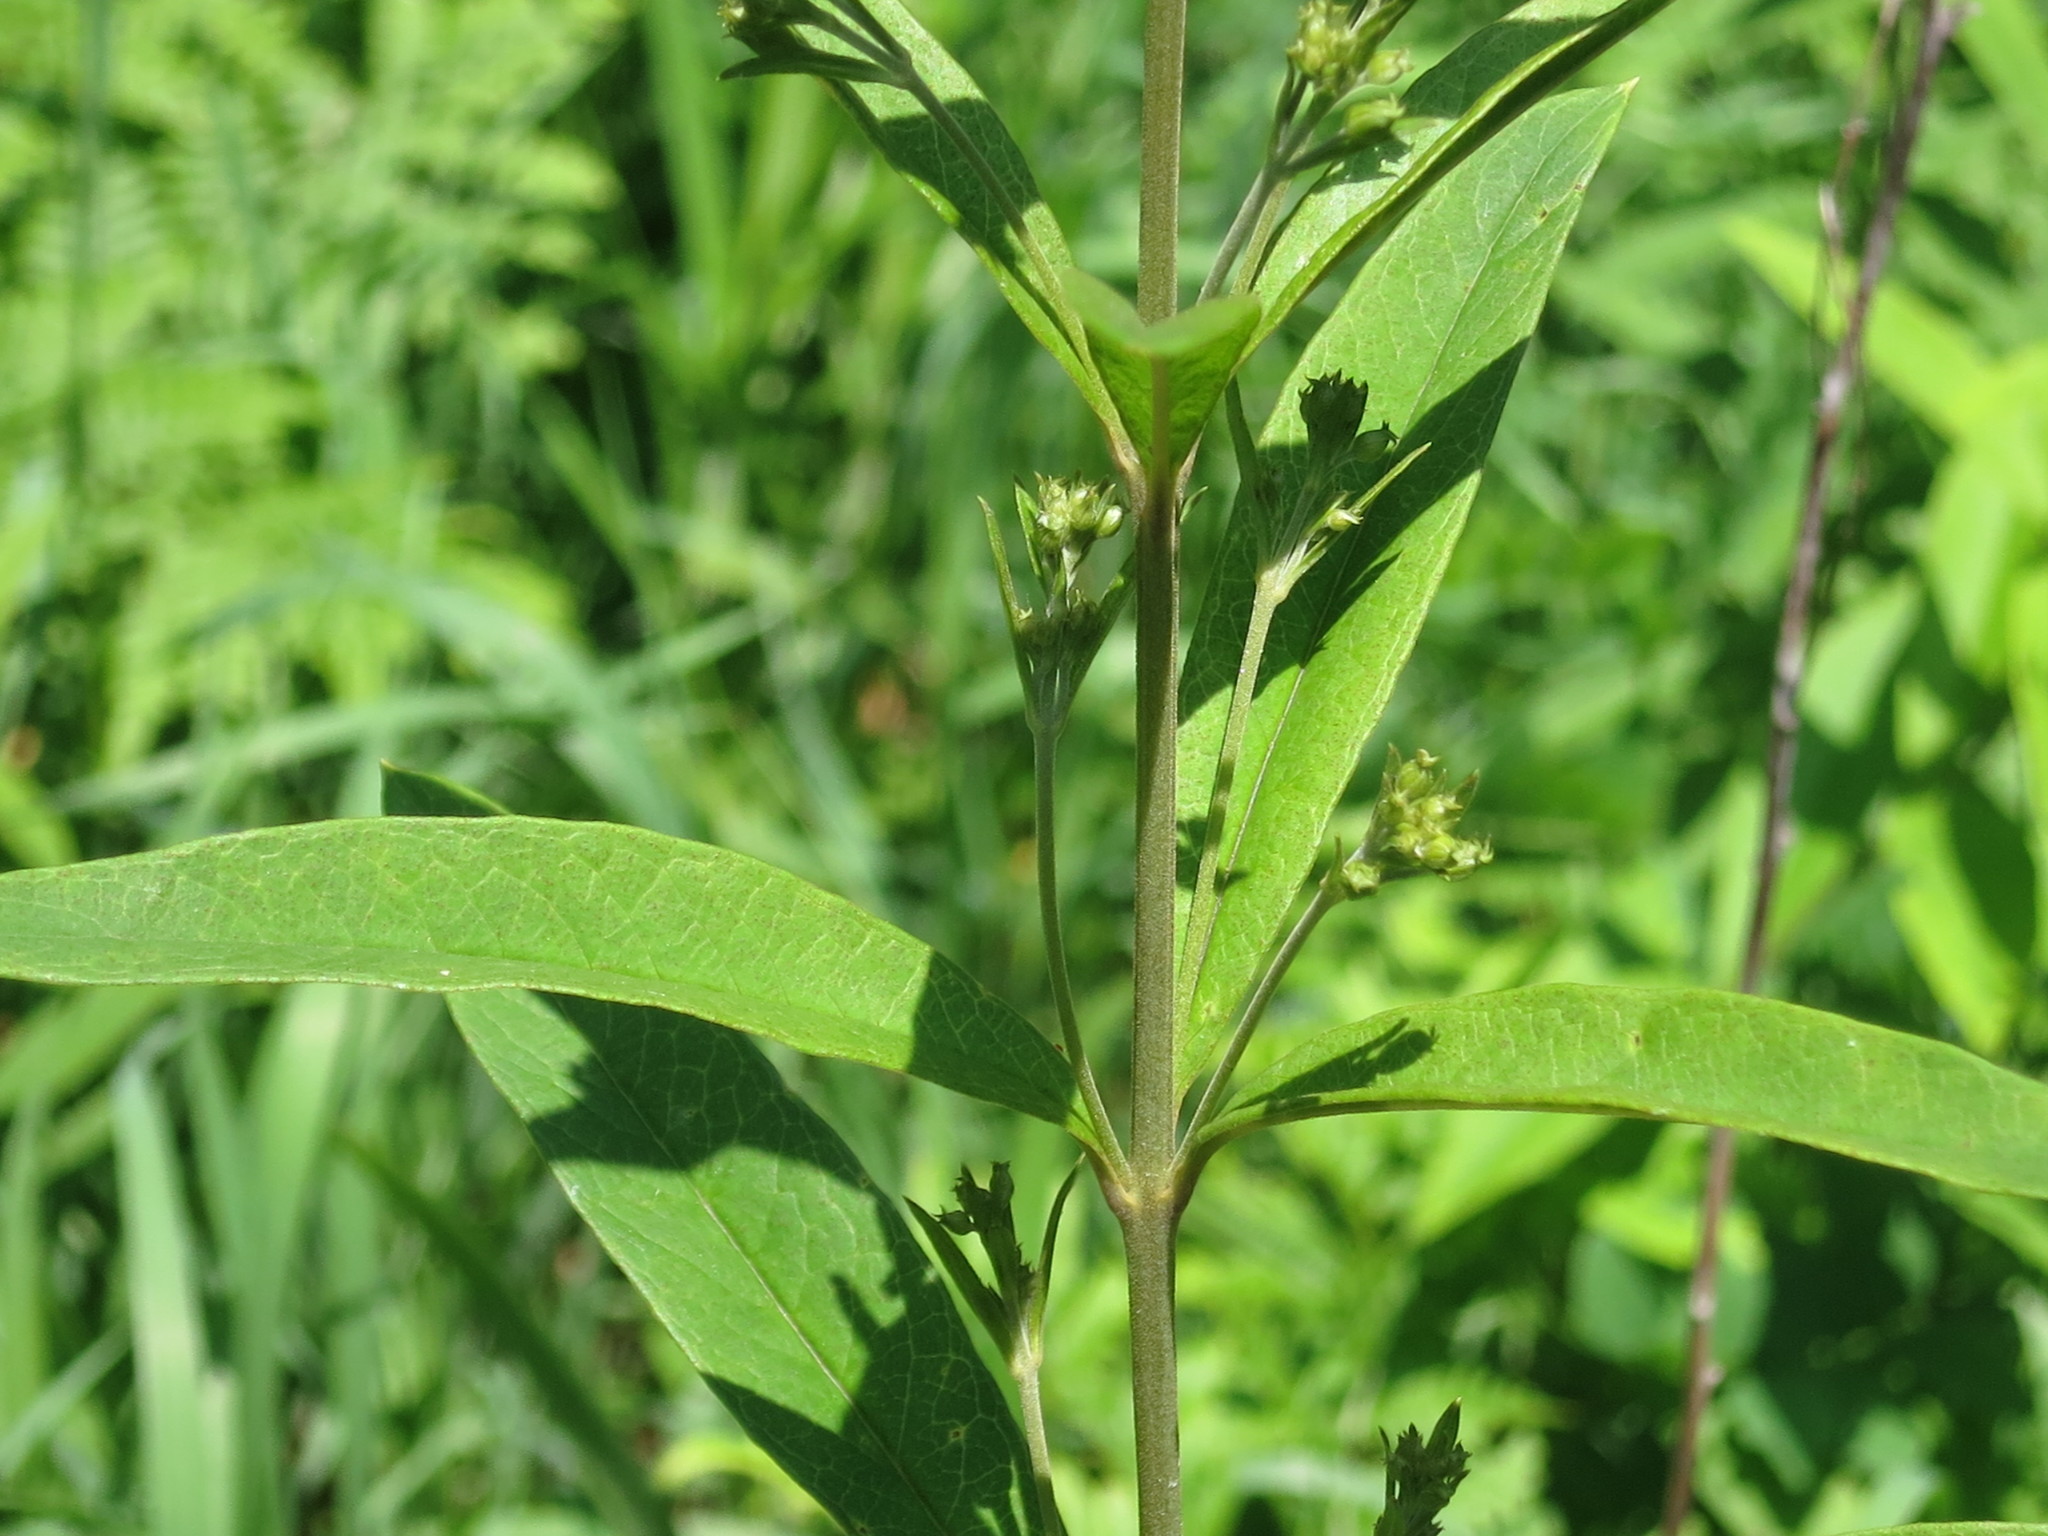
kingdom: Plantae
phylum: Tracheophyta
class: Magnoliopsida
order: Ericales
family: Primulaceae
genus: Lysimachia
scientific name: Lysimachia davurica
